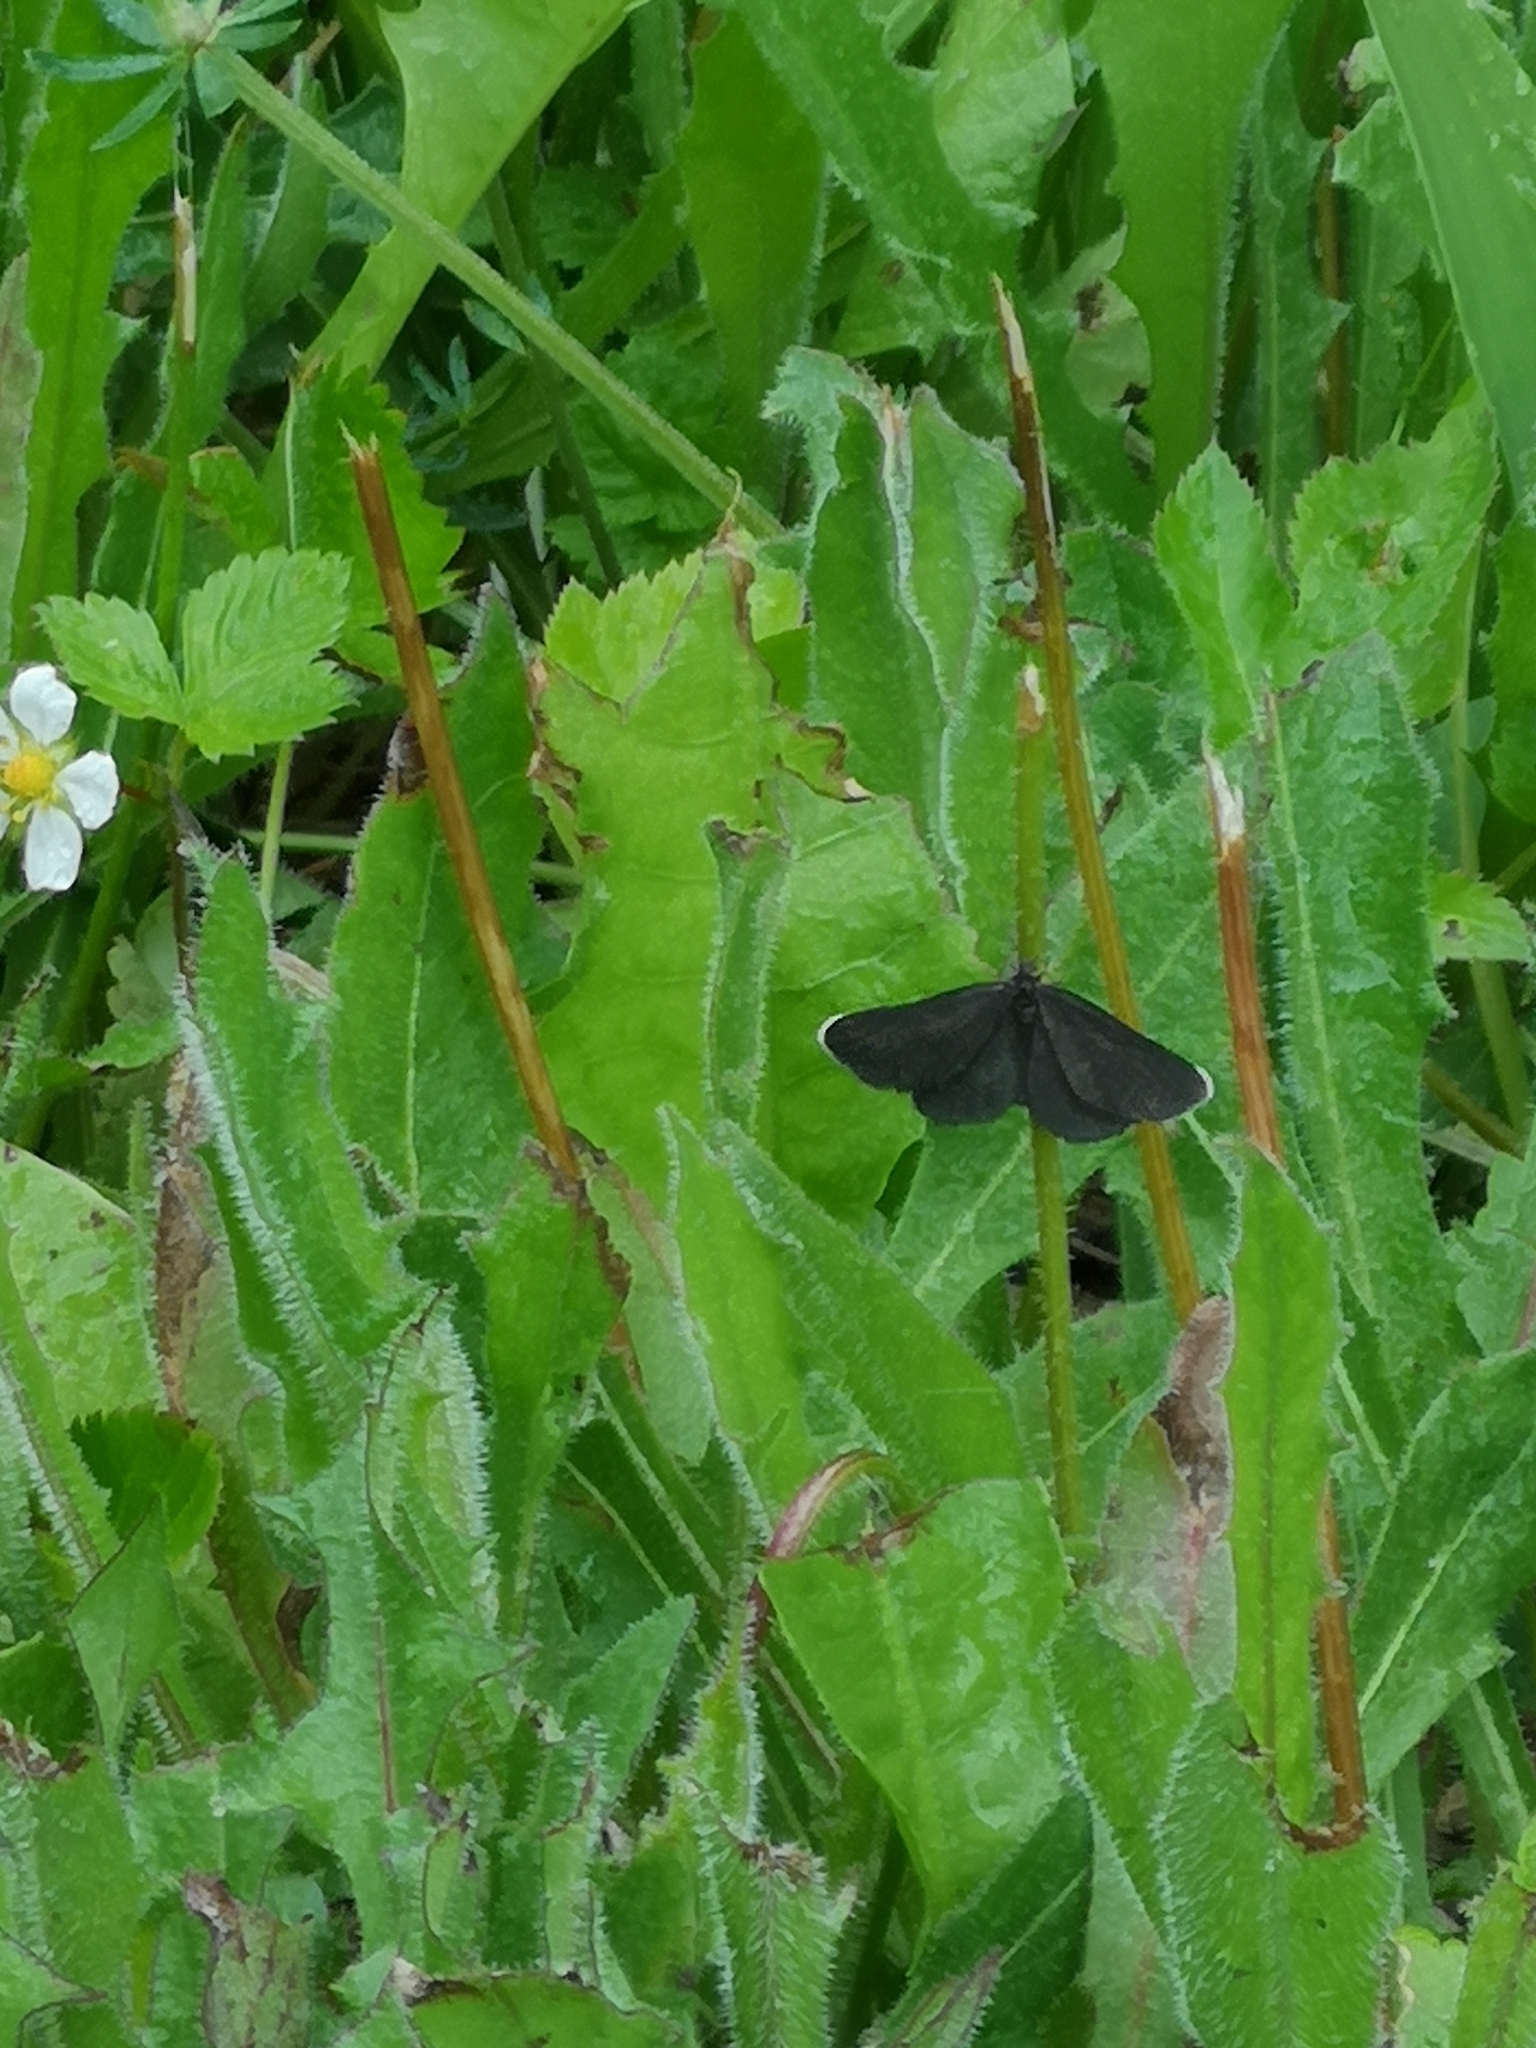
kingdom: Animalia
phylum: Arthropoda
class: Insecta
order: Lepidoptera
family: Geometridae
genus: Odezia
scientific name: Odezia atrata
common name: Chimney sweeper
